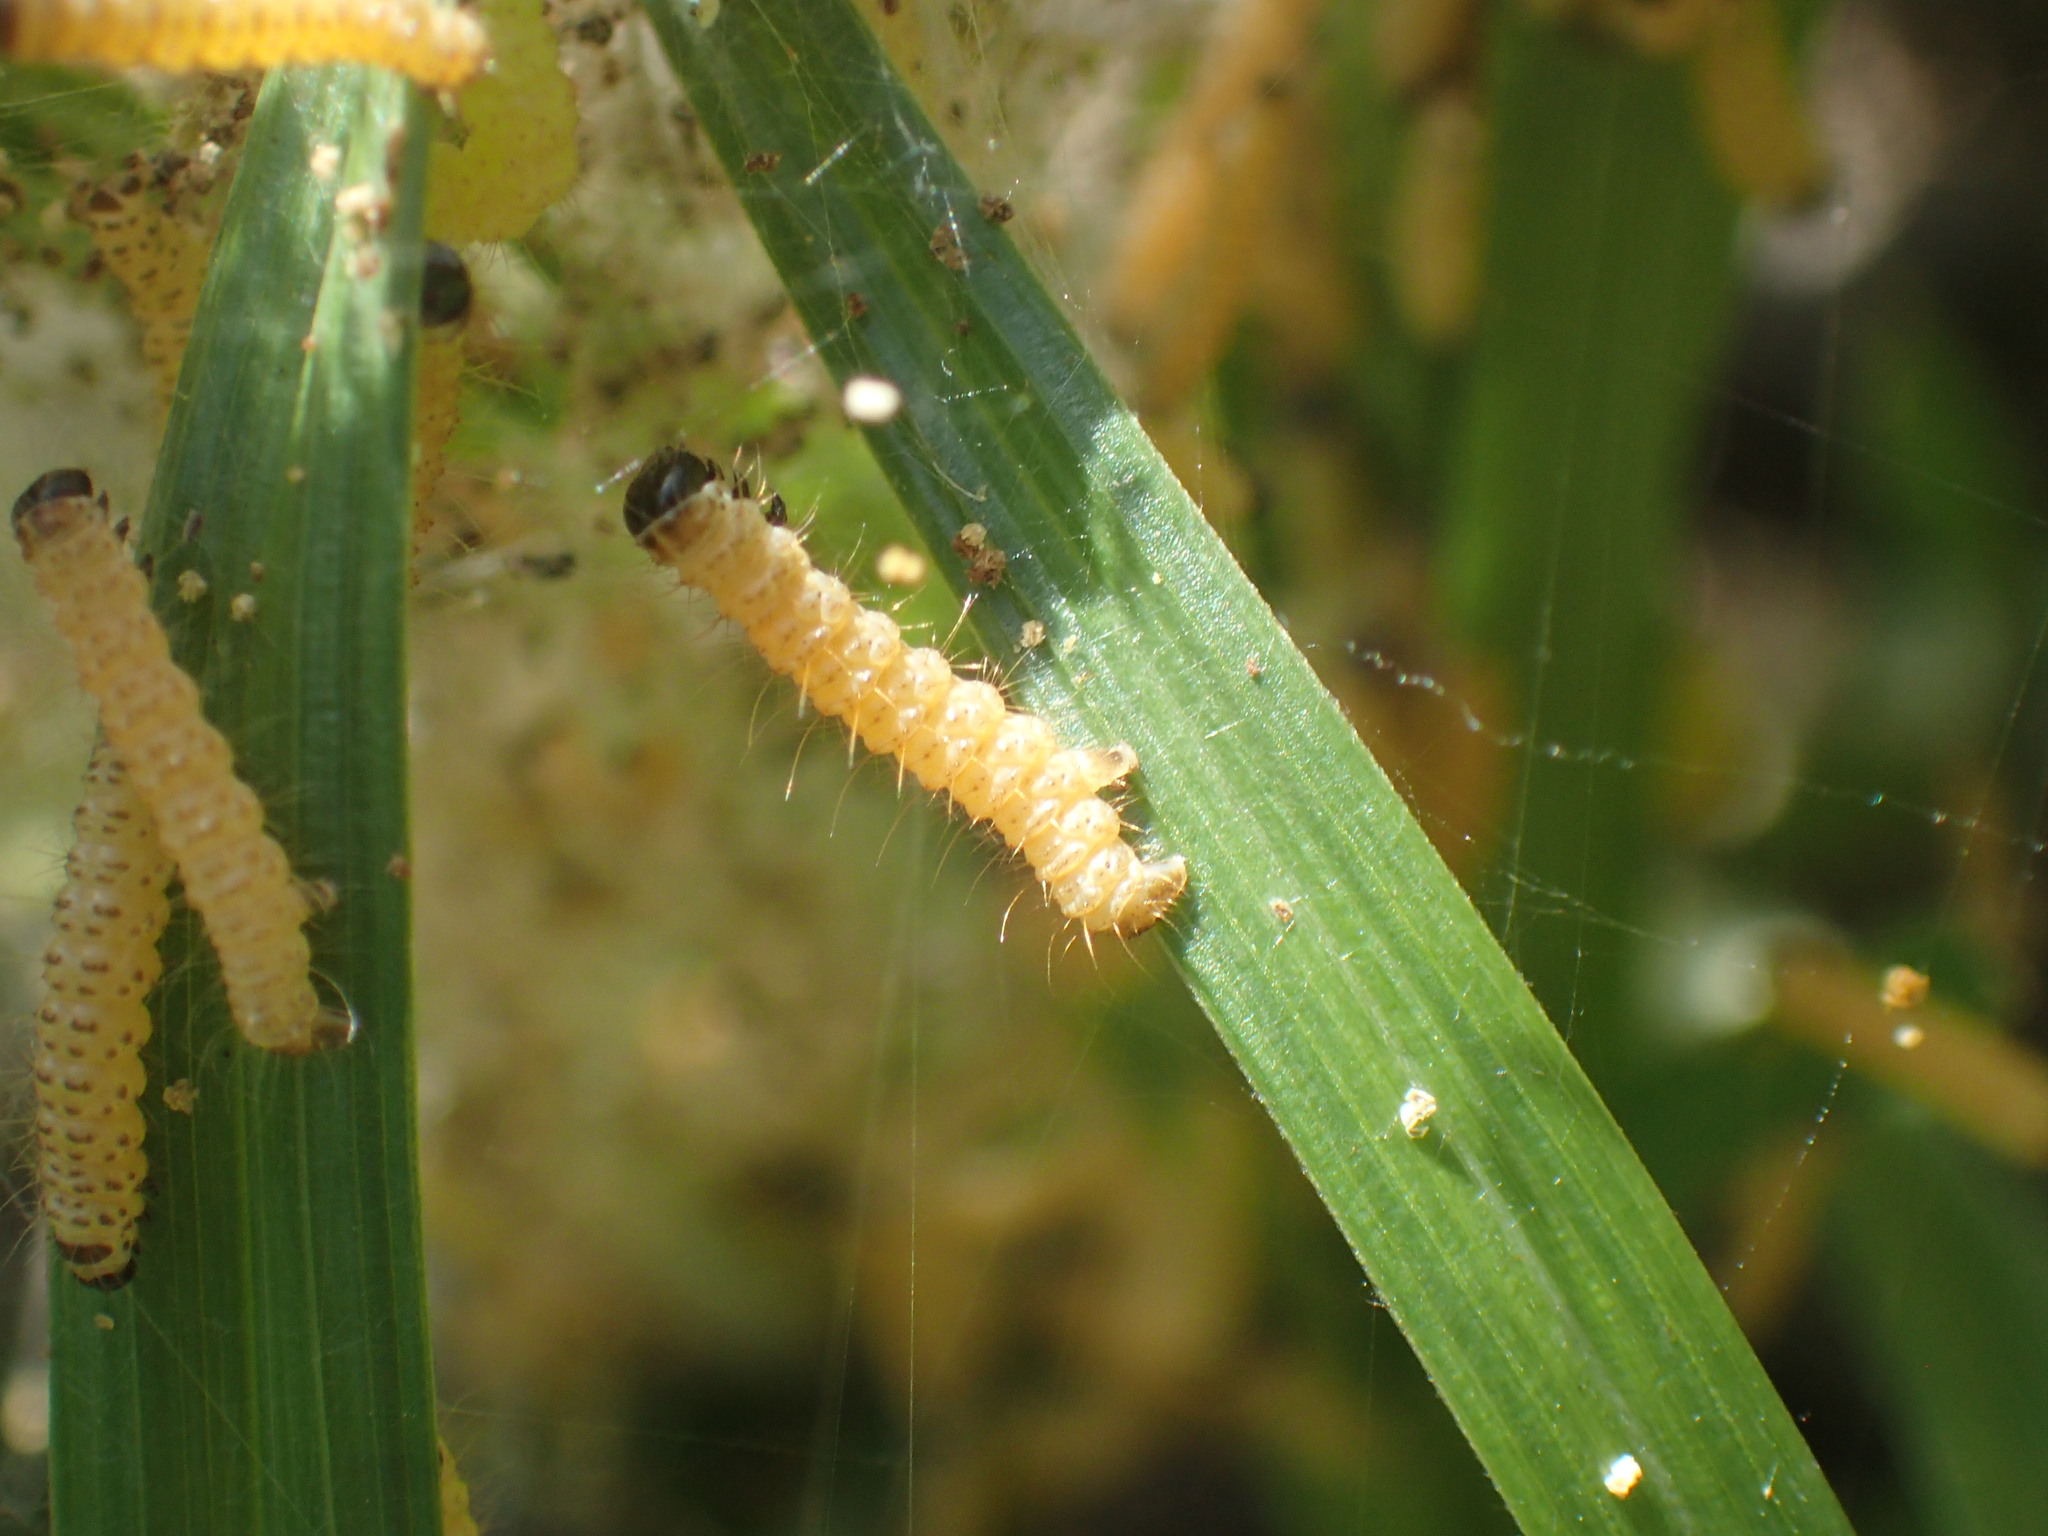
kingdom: Animalia
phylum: Arthropoda
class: Insecta
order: Lepidoptera
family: Geometridae
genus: Zerenopsis
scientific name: Zerenopsis lepida
